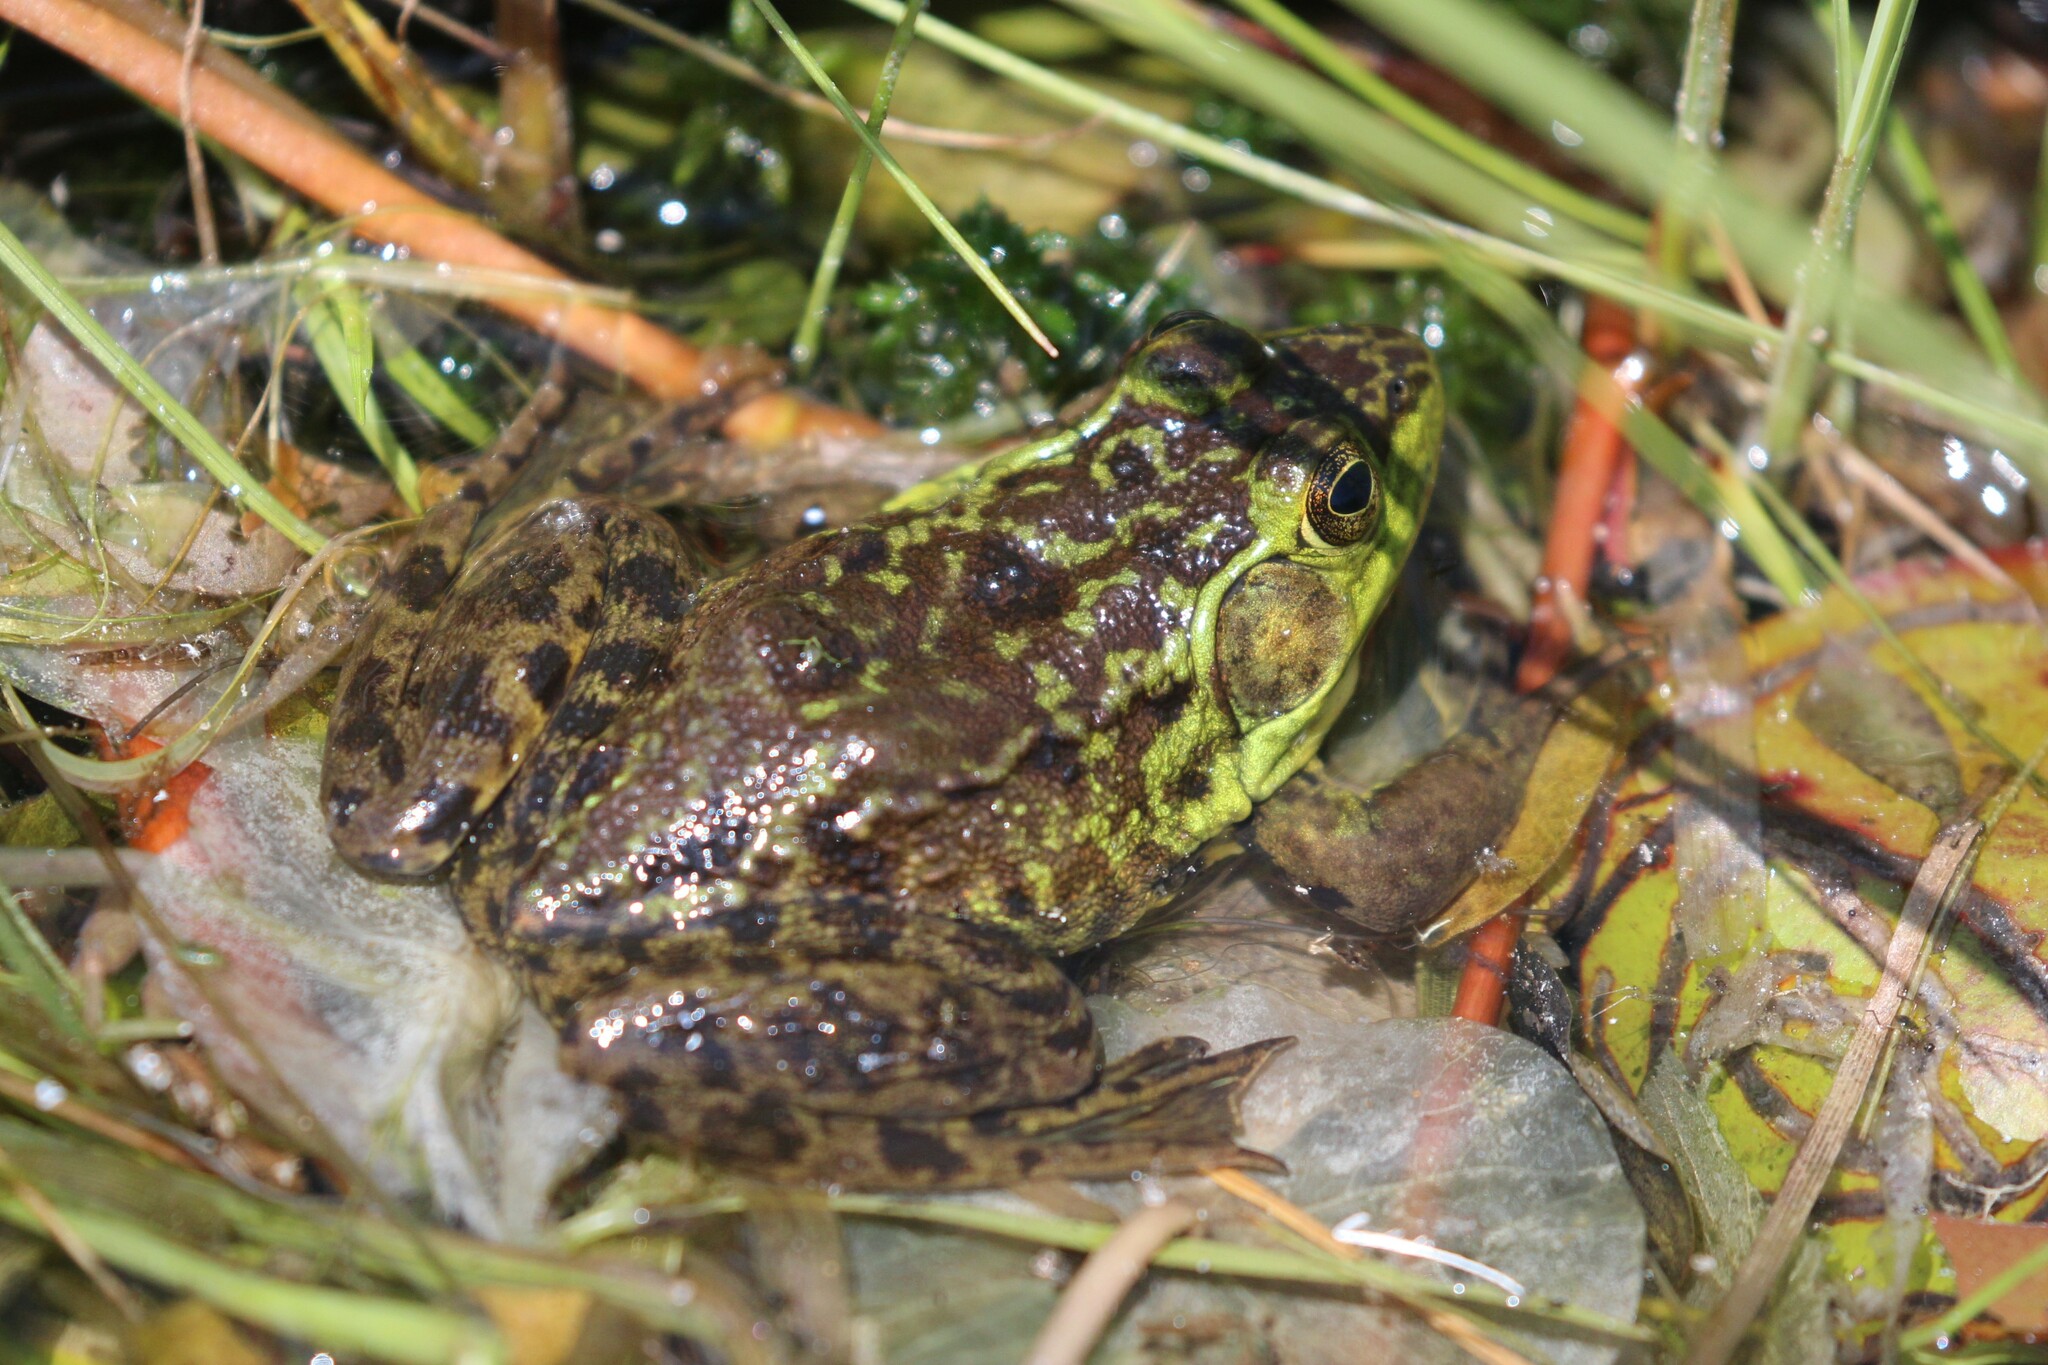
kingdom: Animalia
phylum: Chordata
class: Amphibia
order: Anura
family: Ranidae
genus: Lithobates
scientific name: Lithobates septentrionalis
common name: Mink frog
